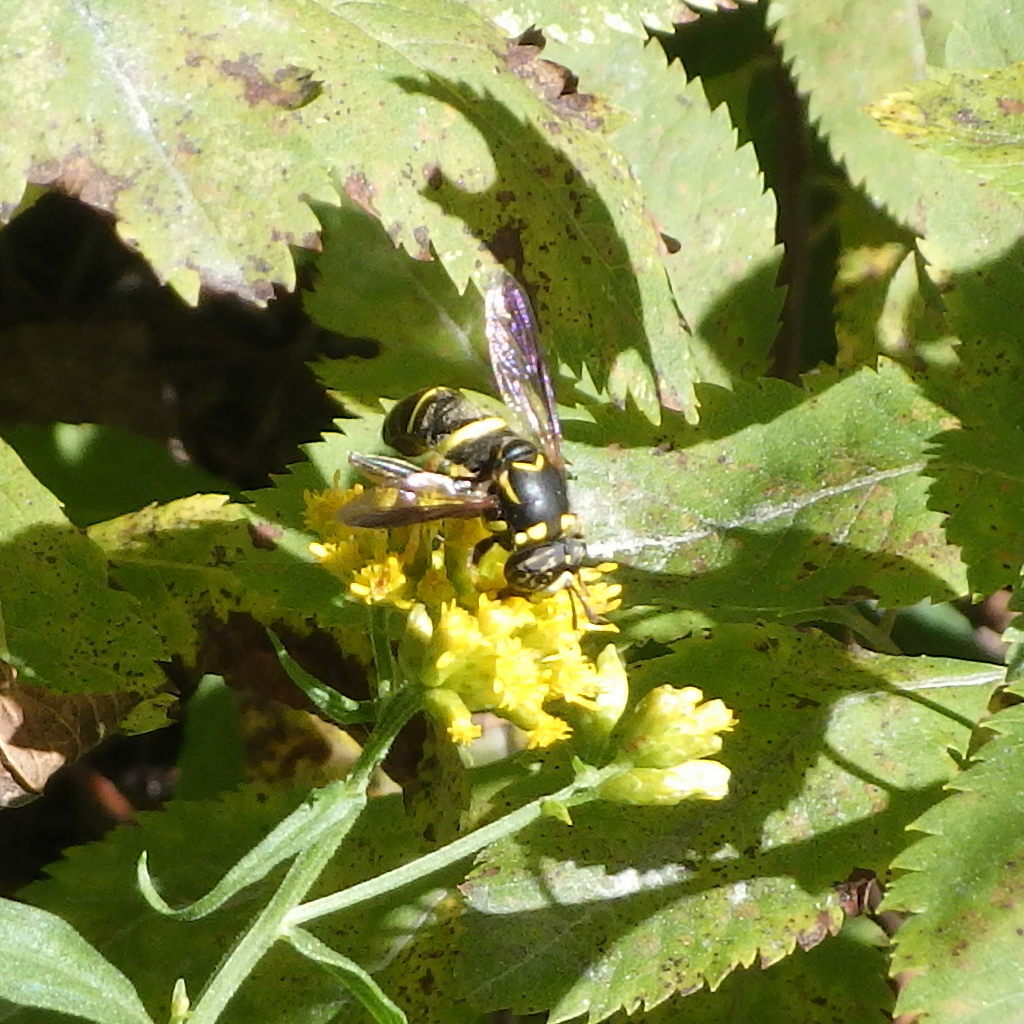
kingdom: Animalia
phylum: Arthropoda
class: Insecta
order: Diptera
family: Syrphidae
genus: Spilomyia
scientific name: Spilomyia sayi
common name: Four-lined hornet fly
